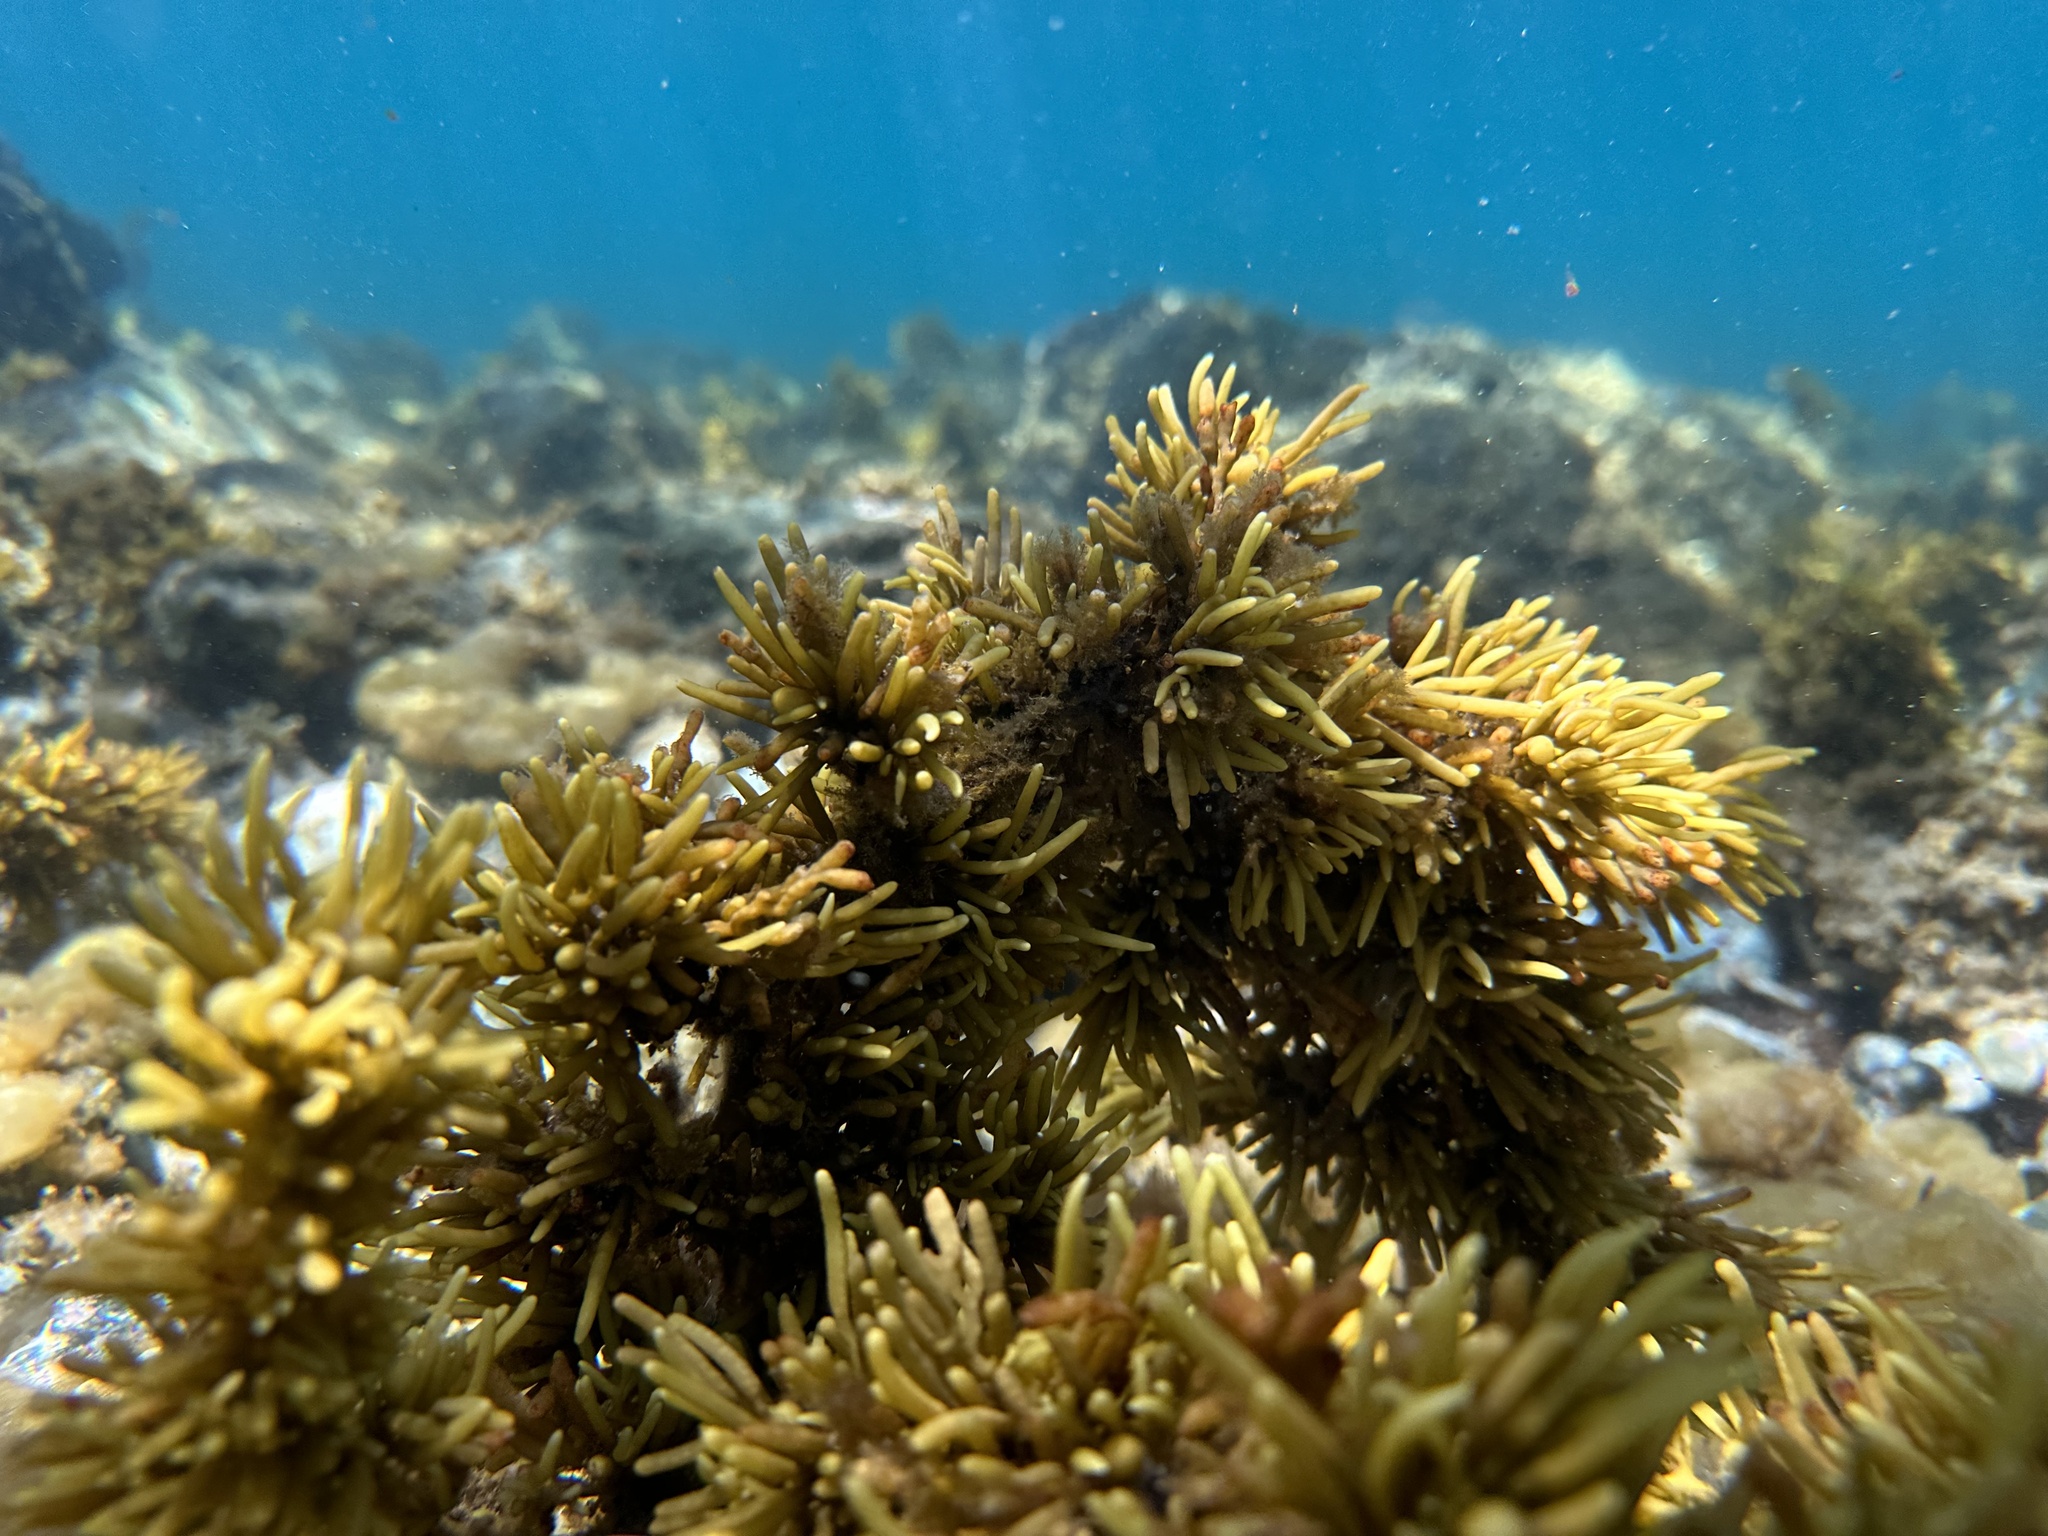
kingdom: Chromista
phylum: Ochrophyta
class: Phaeophyceae
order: Fucales
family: Sargassaceae
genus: Cystophora
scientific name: Cystophora torulosa
